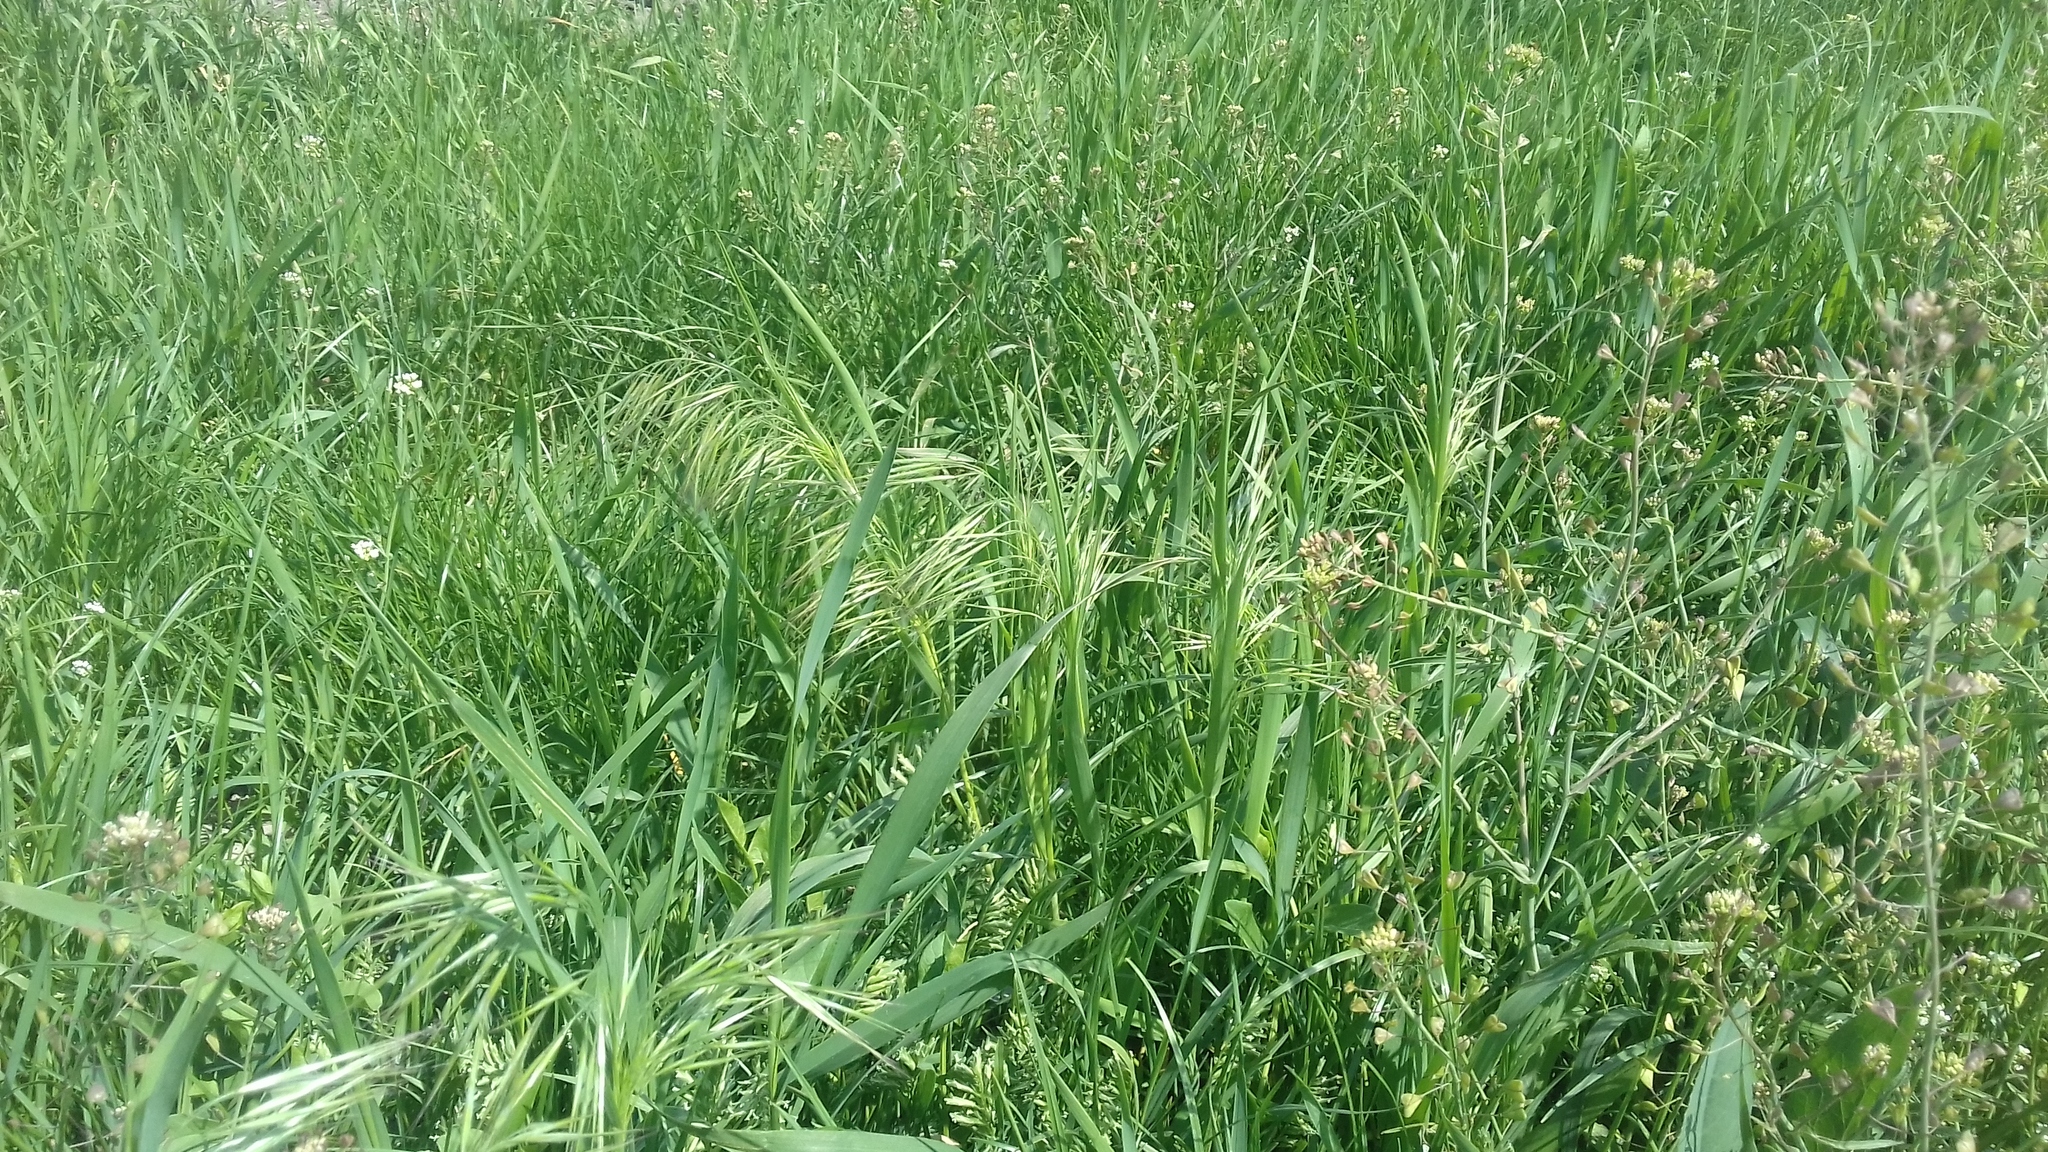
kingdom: Plantae
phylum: Tracheophyta
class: Liliopsida
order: Poales
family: Poaceae
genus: Bromus
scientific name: Bromus tectorum
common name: Cheatgrass
